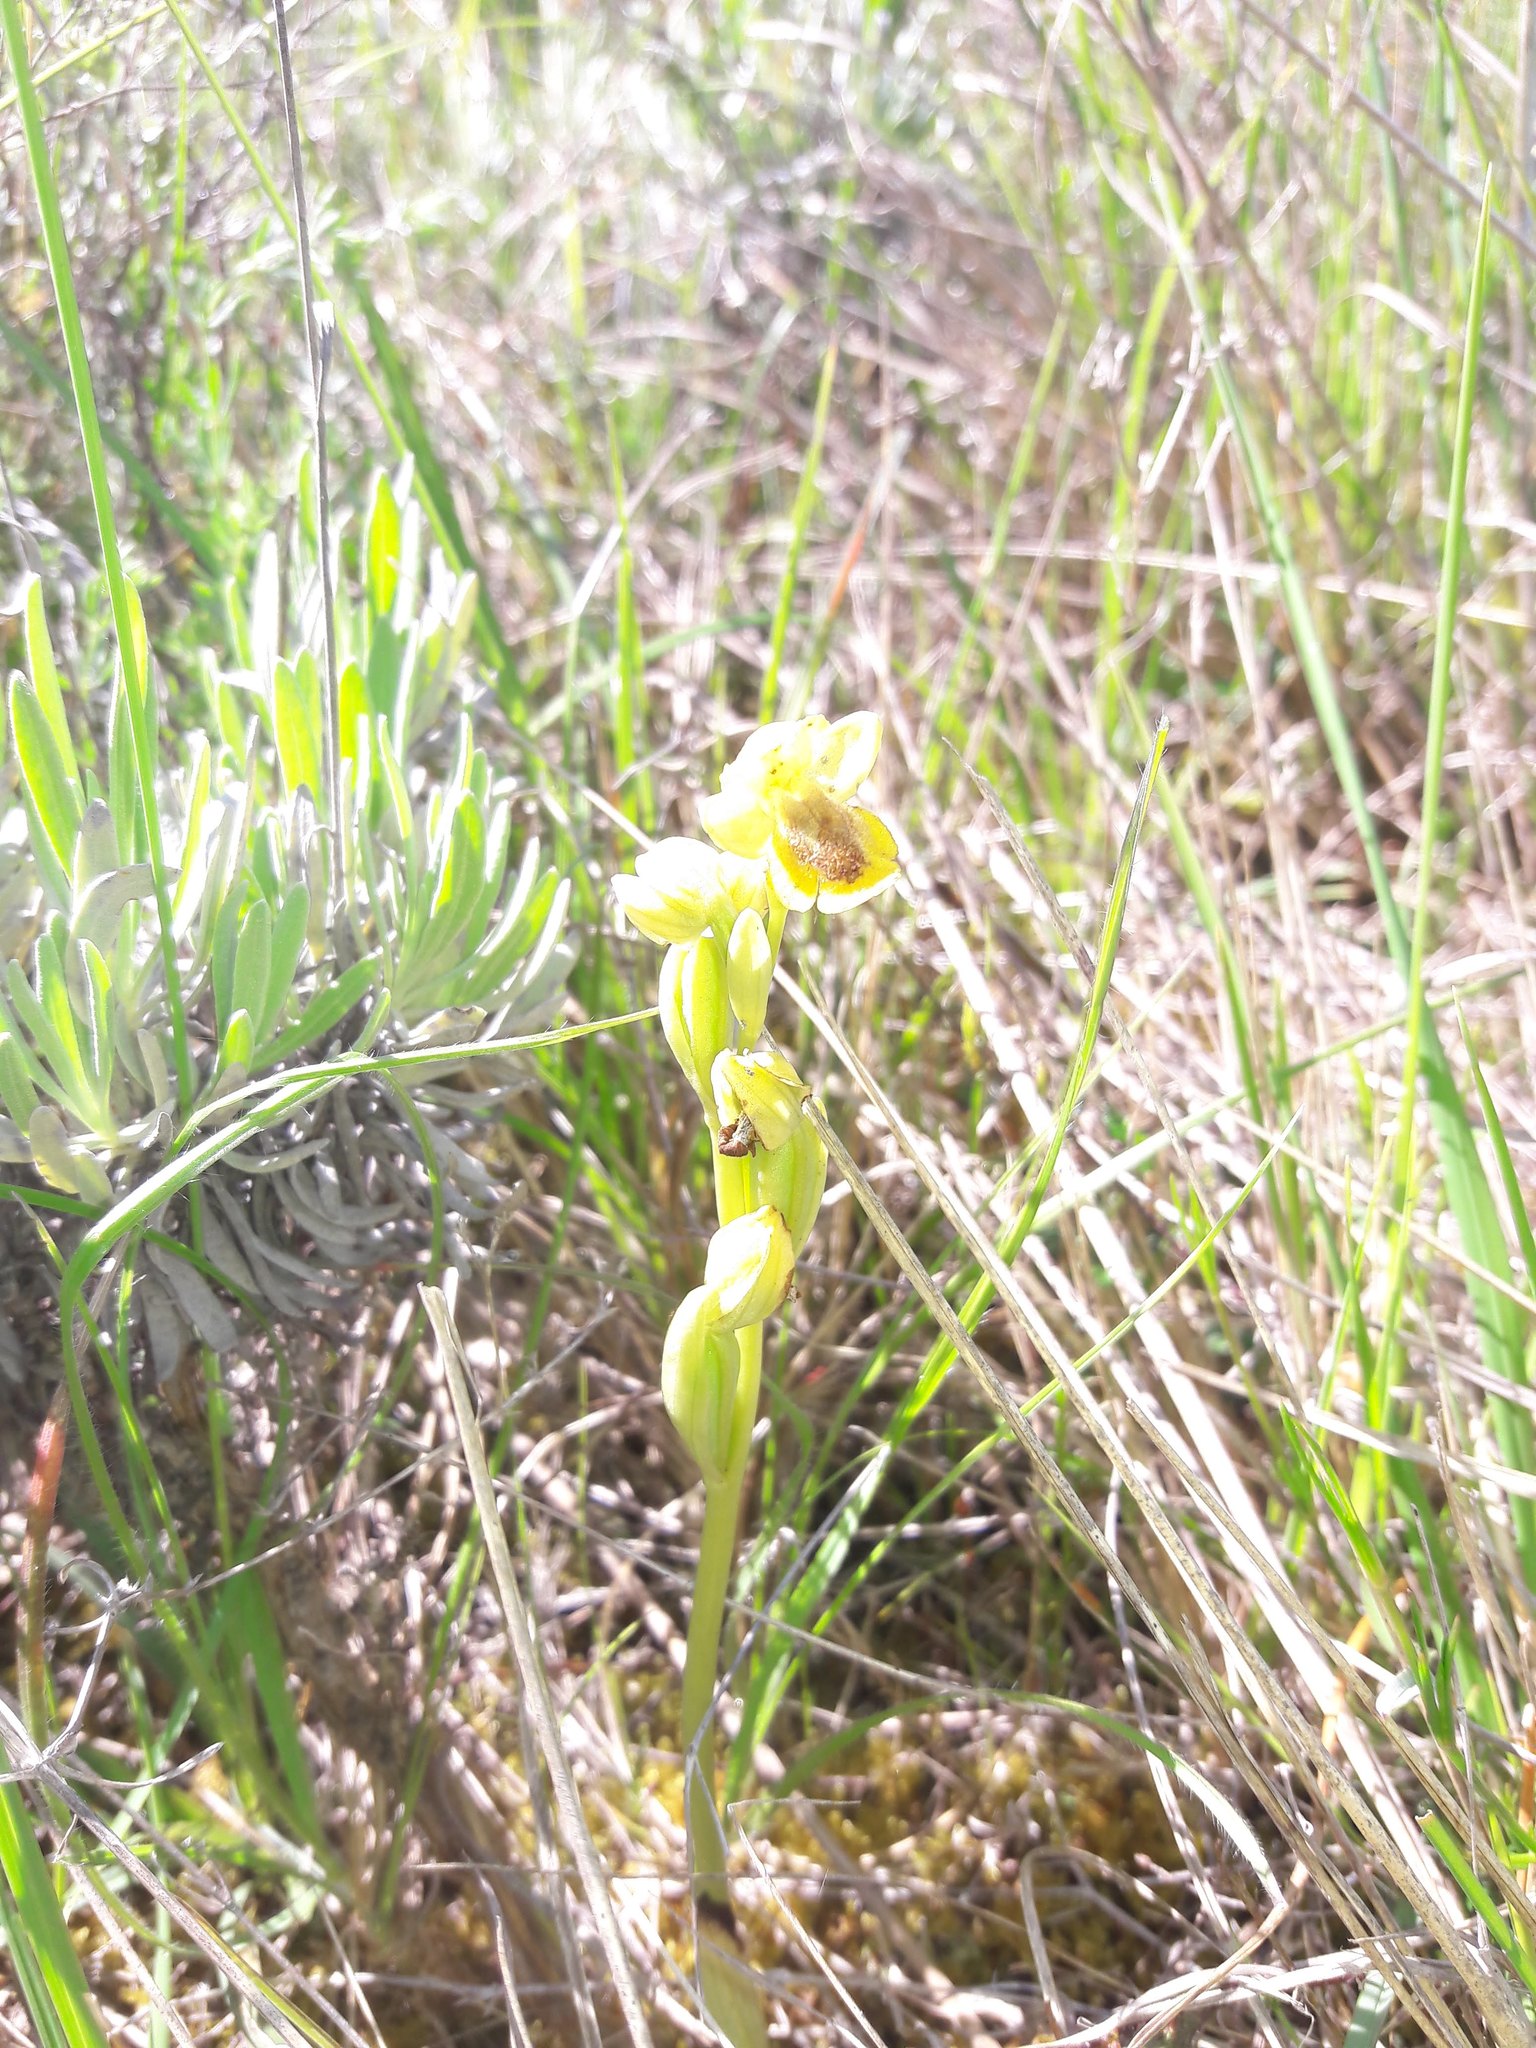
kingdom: Plantae
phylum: Tracheophyta
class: Liliopsida
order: Asparagales
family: Orchidaceae
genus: Ophrys
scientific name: Ophrys lutea
